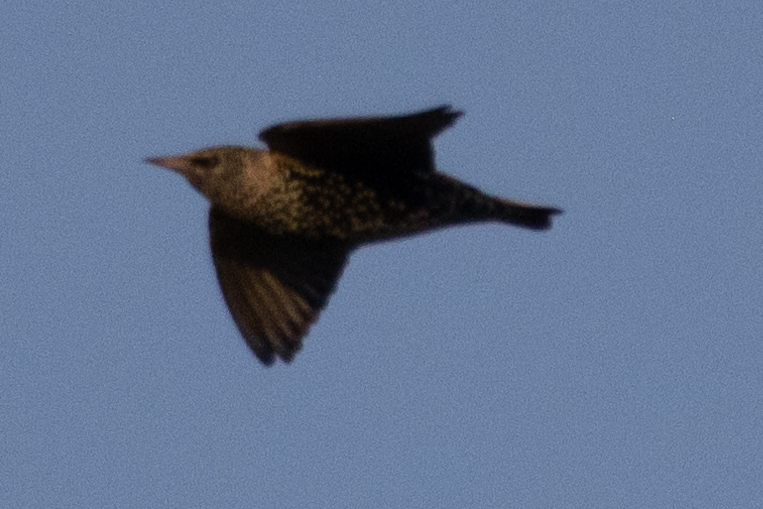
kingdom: Animalia
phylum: Chordata
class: Aves
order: Passeriformes
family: Sturnidae
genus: Sturnus
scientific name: Sturnus vulgaris
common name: Common starling
